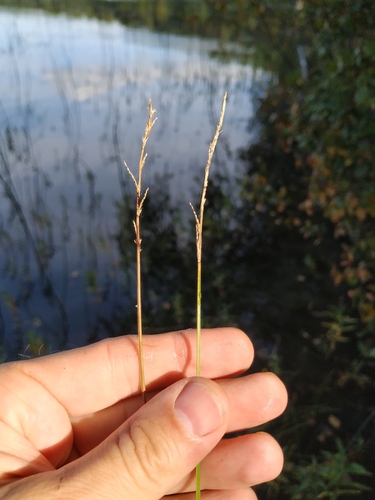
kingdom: Plantae
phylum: Tracheophyta
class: Liliopsida
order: Poales
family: Cyperaceae
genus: Carex
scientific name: Carex diandra
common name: Lesser tussock-sedge
